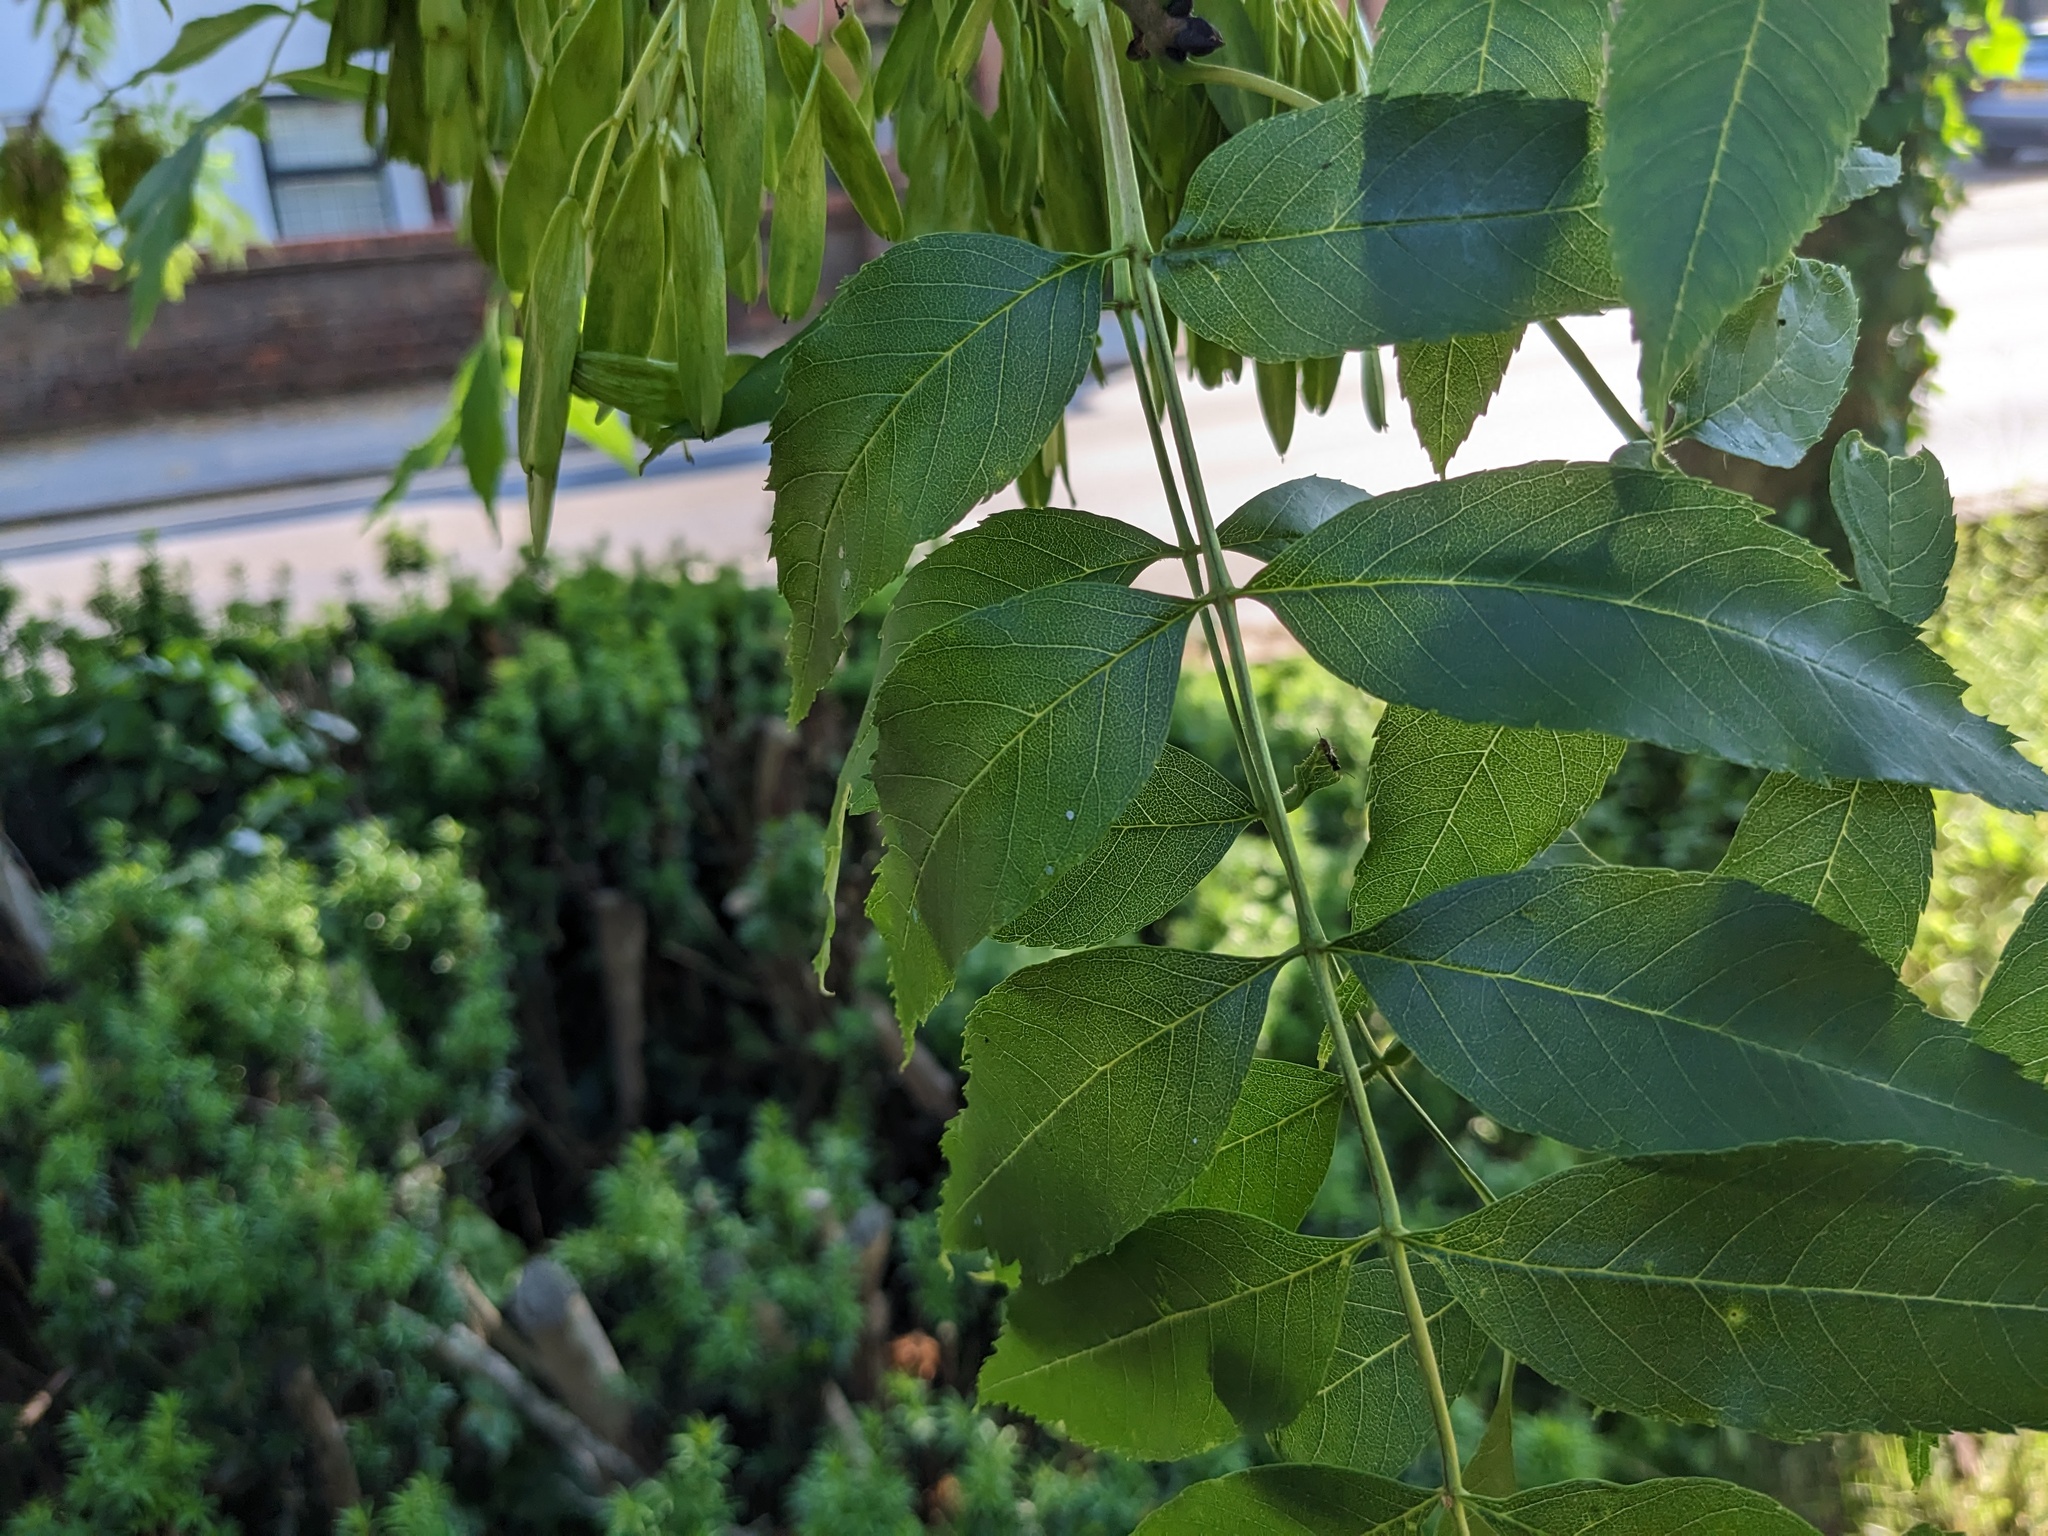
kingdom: Plantae
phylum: Tracheophyta
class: Magnoliopsida
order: Lamiales
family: Oleaceae
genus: Fraxinus
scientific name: Fraxinus excelsior
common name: European ash
